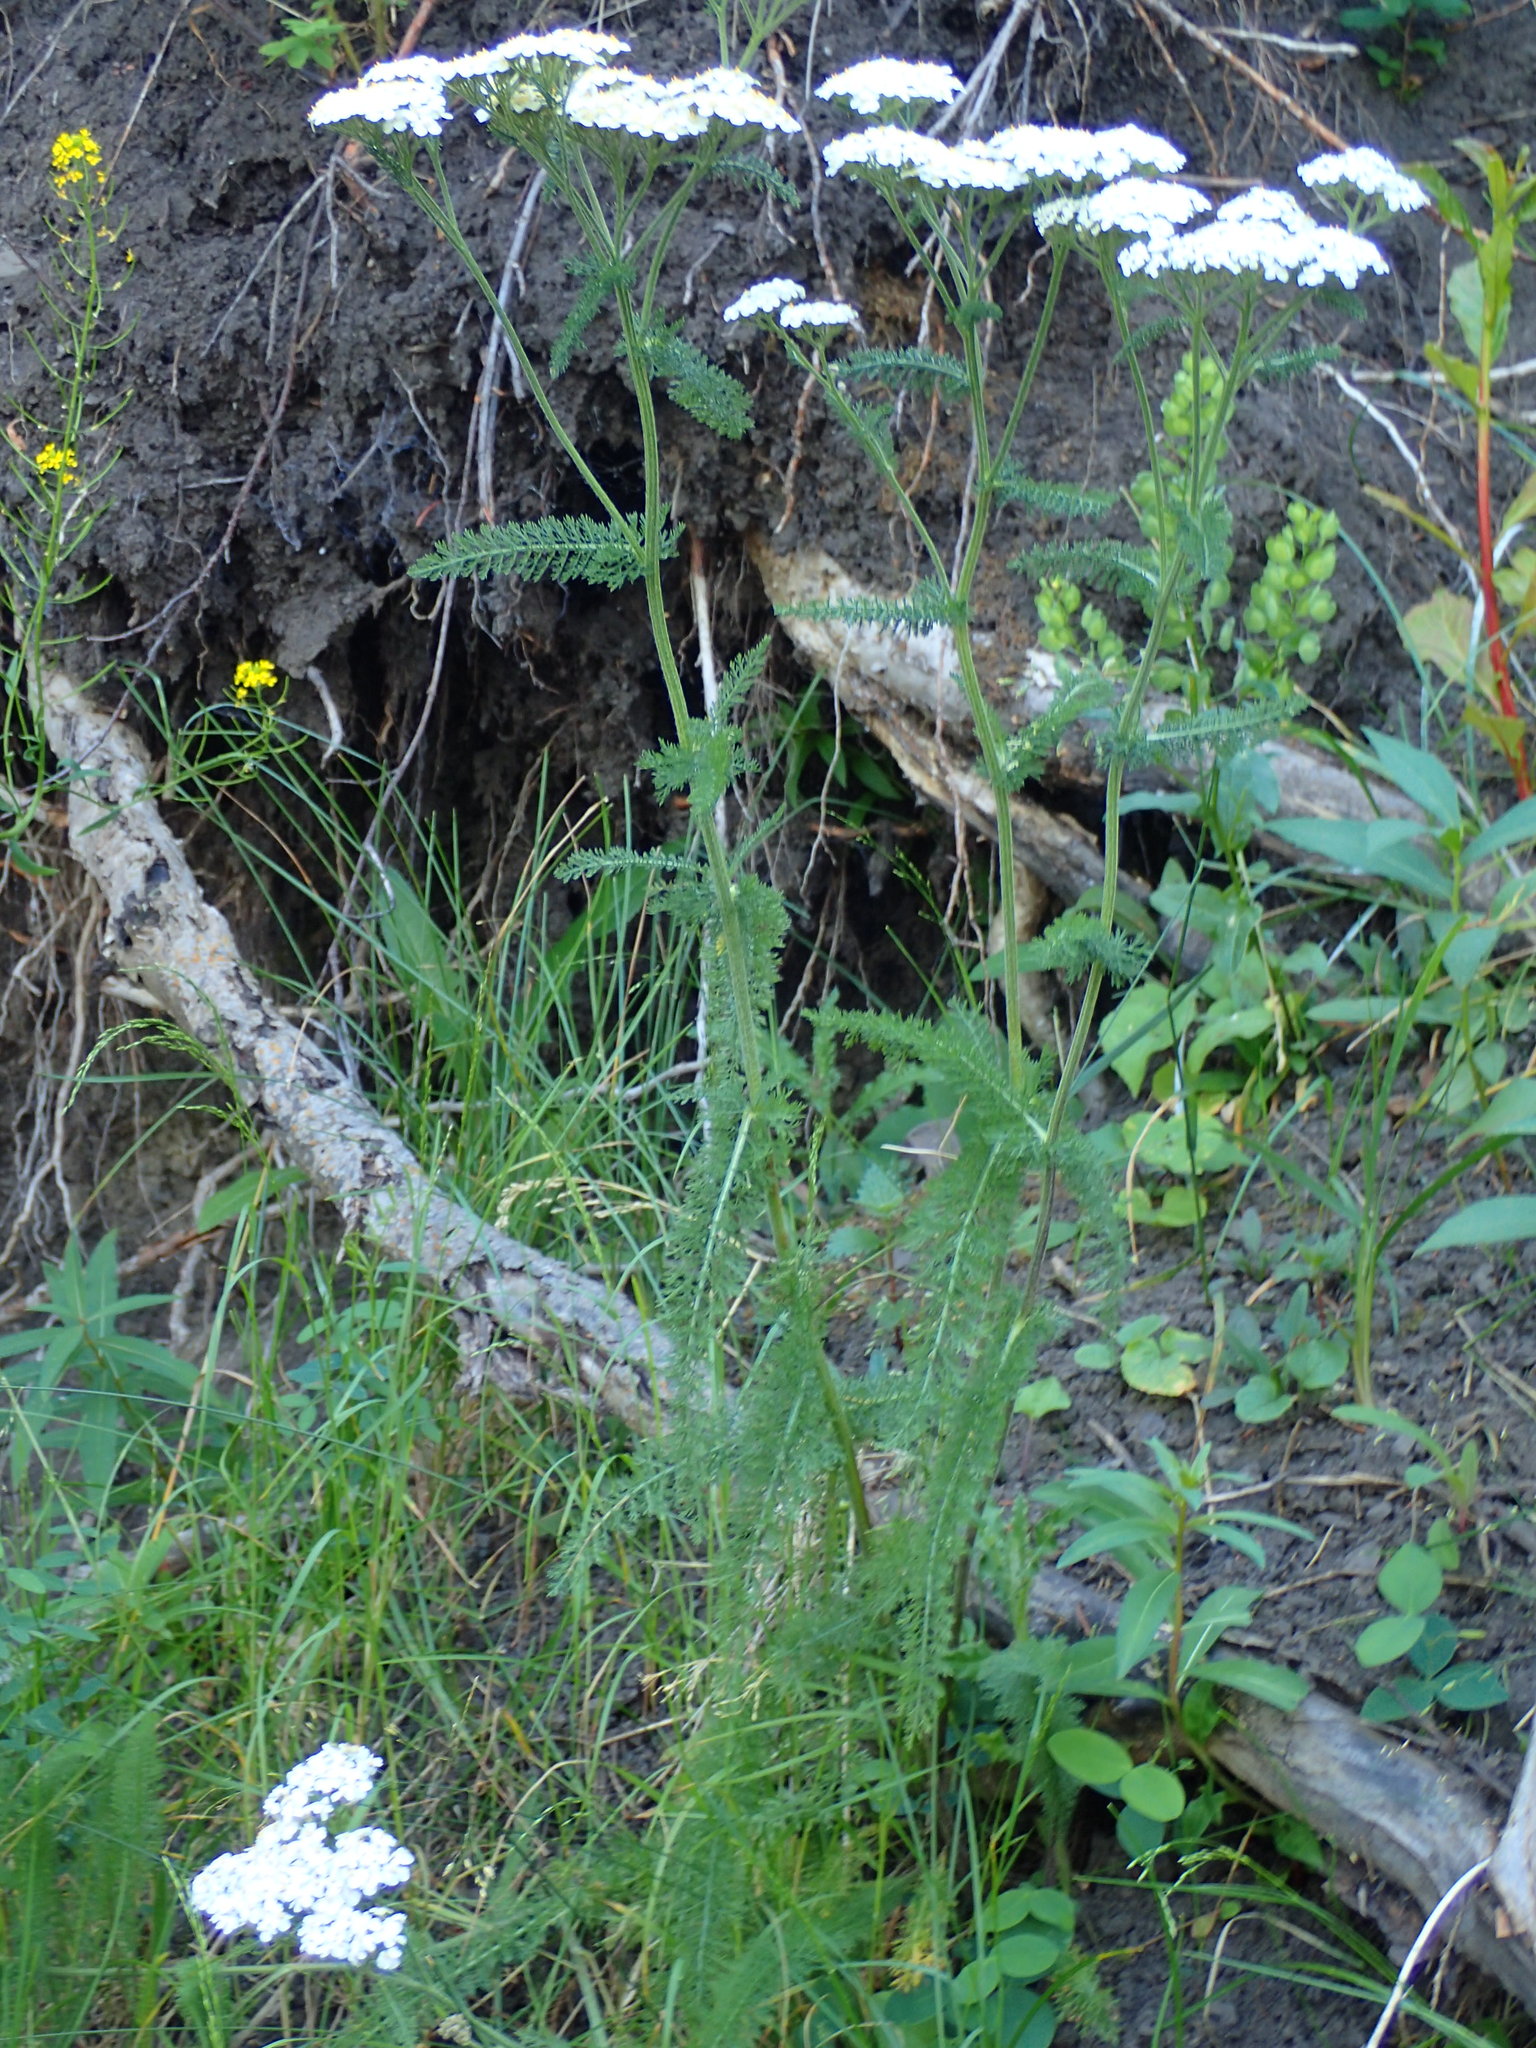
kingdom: Plantae
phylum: Tracheophyta
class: Magnoliopsida
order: Asterales
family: Asteraceae
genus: Achillea
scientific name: Achillea millefolium
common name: Yarrow
